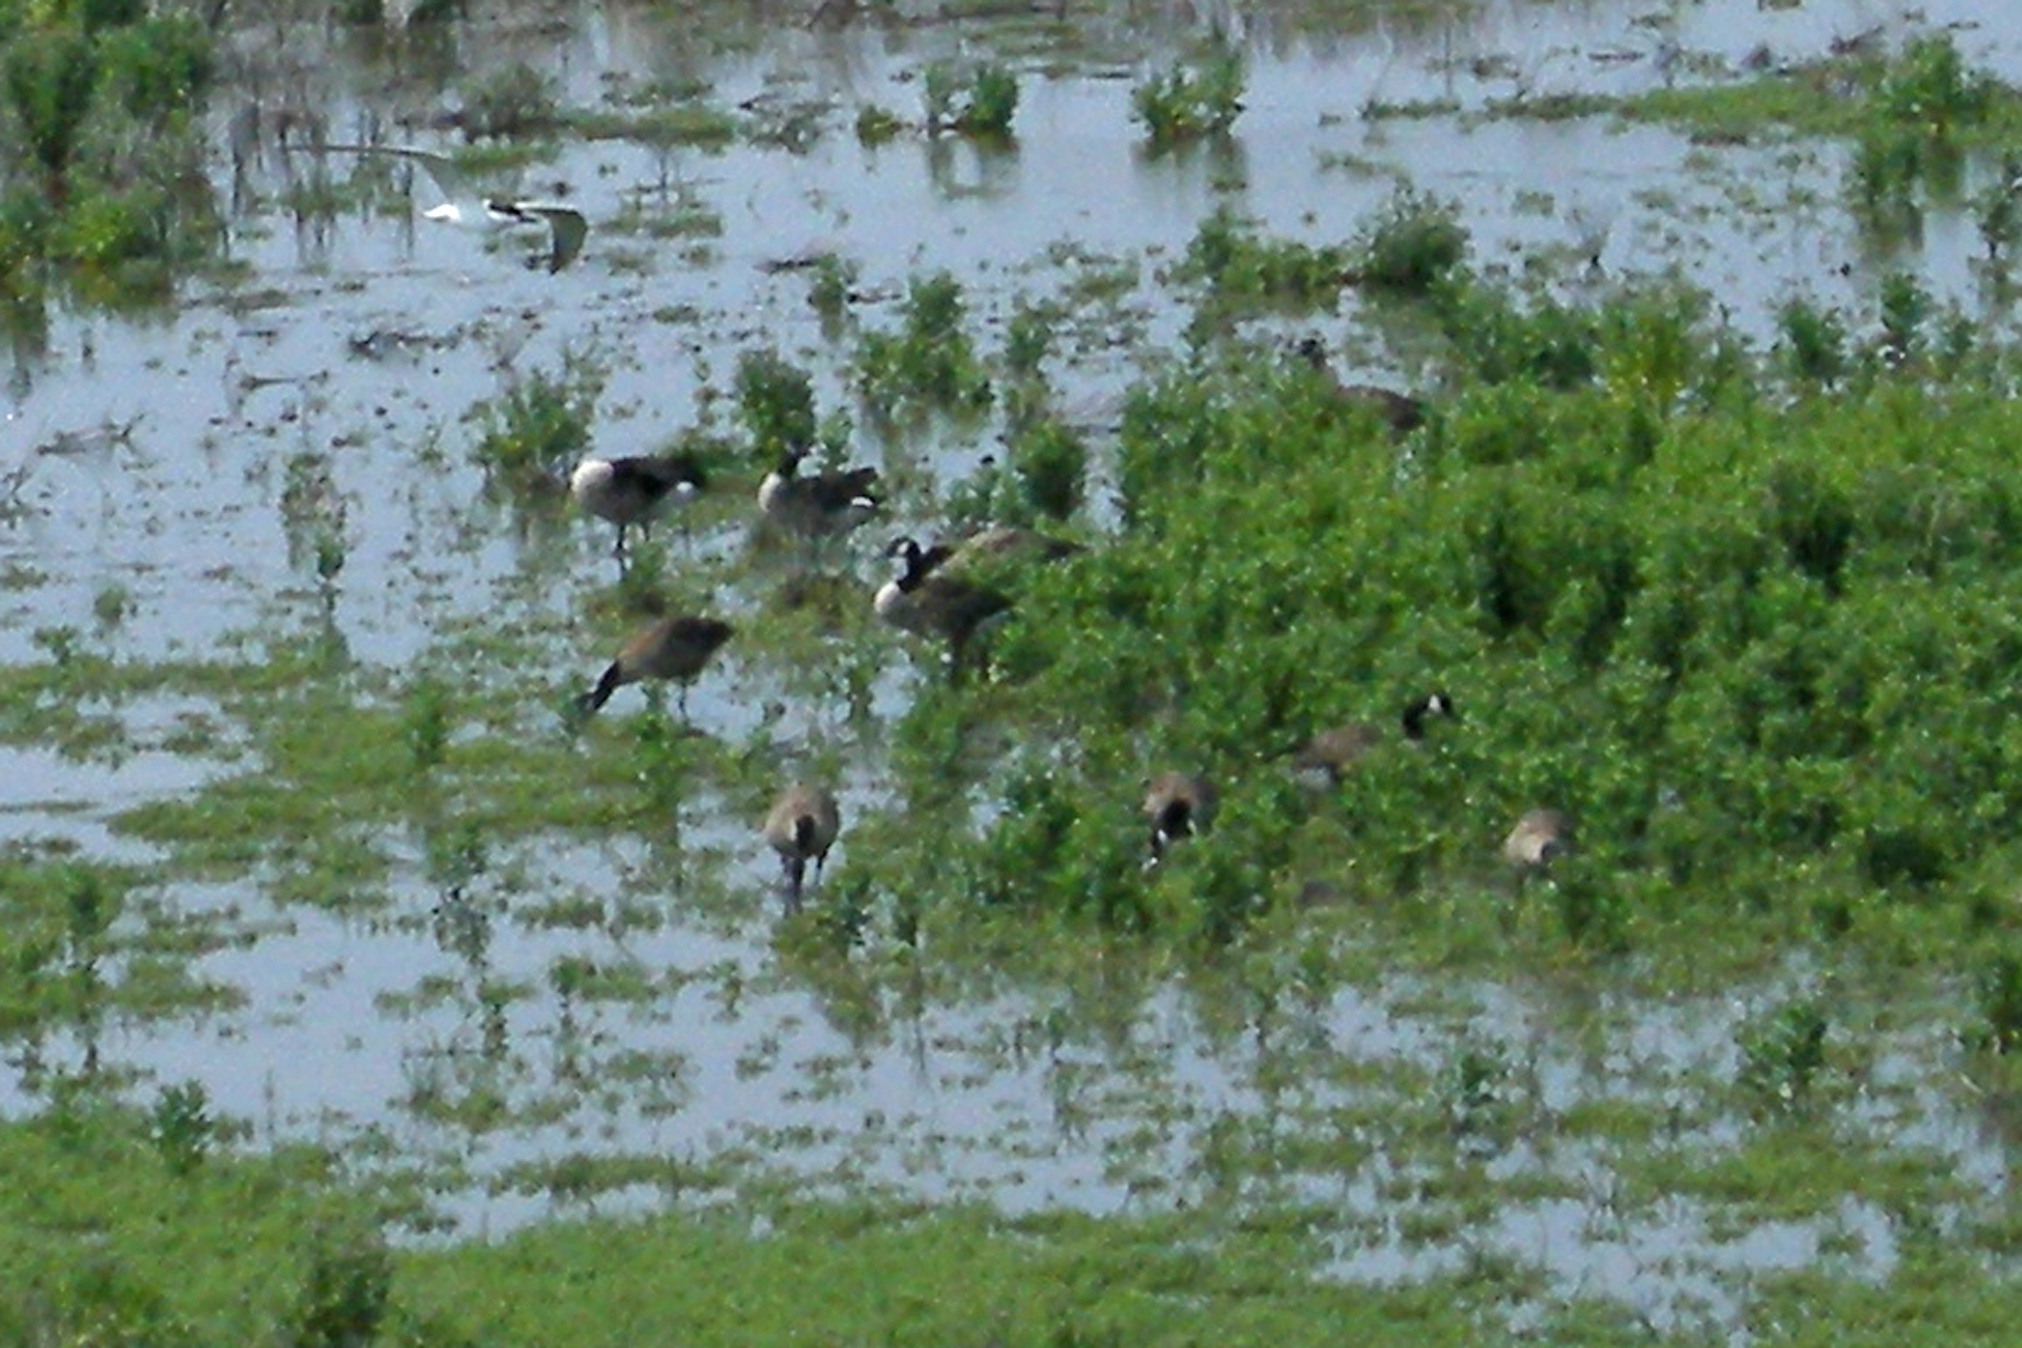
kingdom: Animalia
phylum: Chordata
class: Aves
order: Anseriformes
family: Anatidae
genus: Branta
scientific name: Branta canadensis
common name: Canada goose
